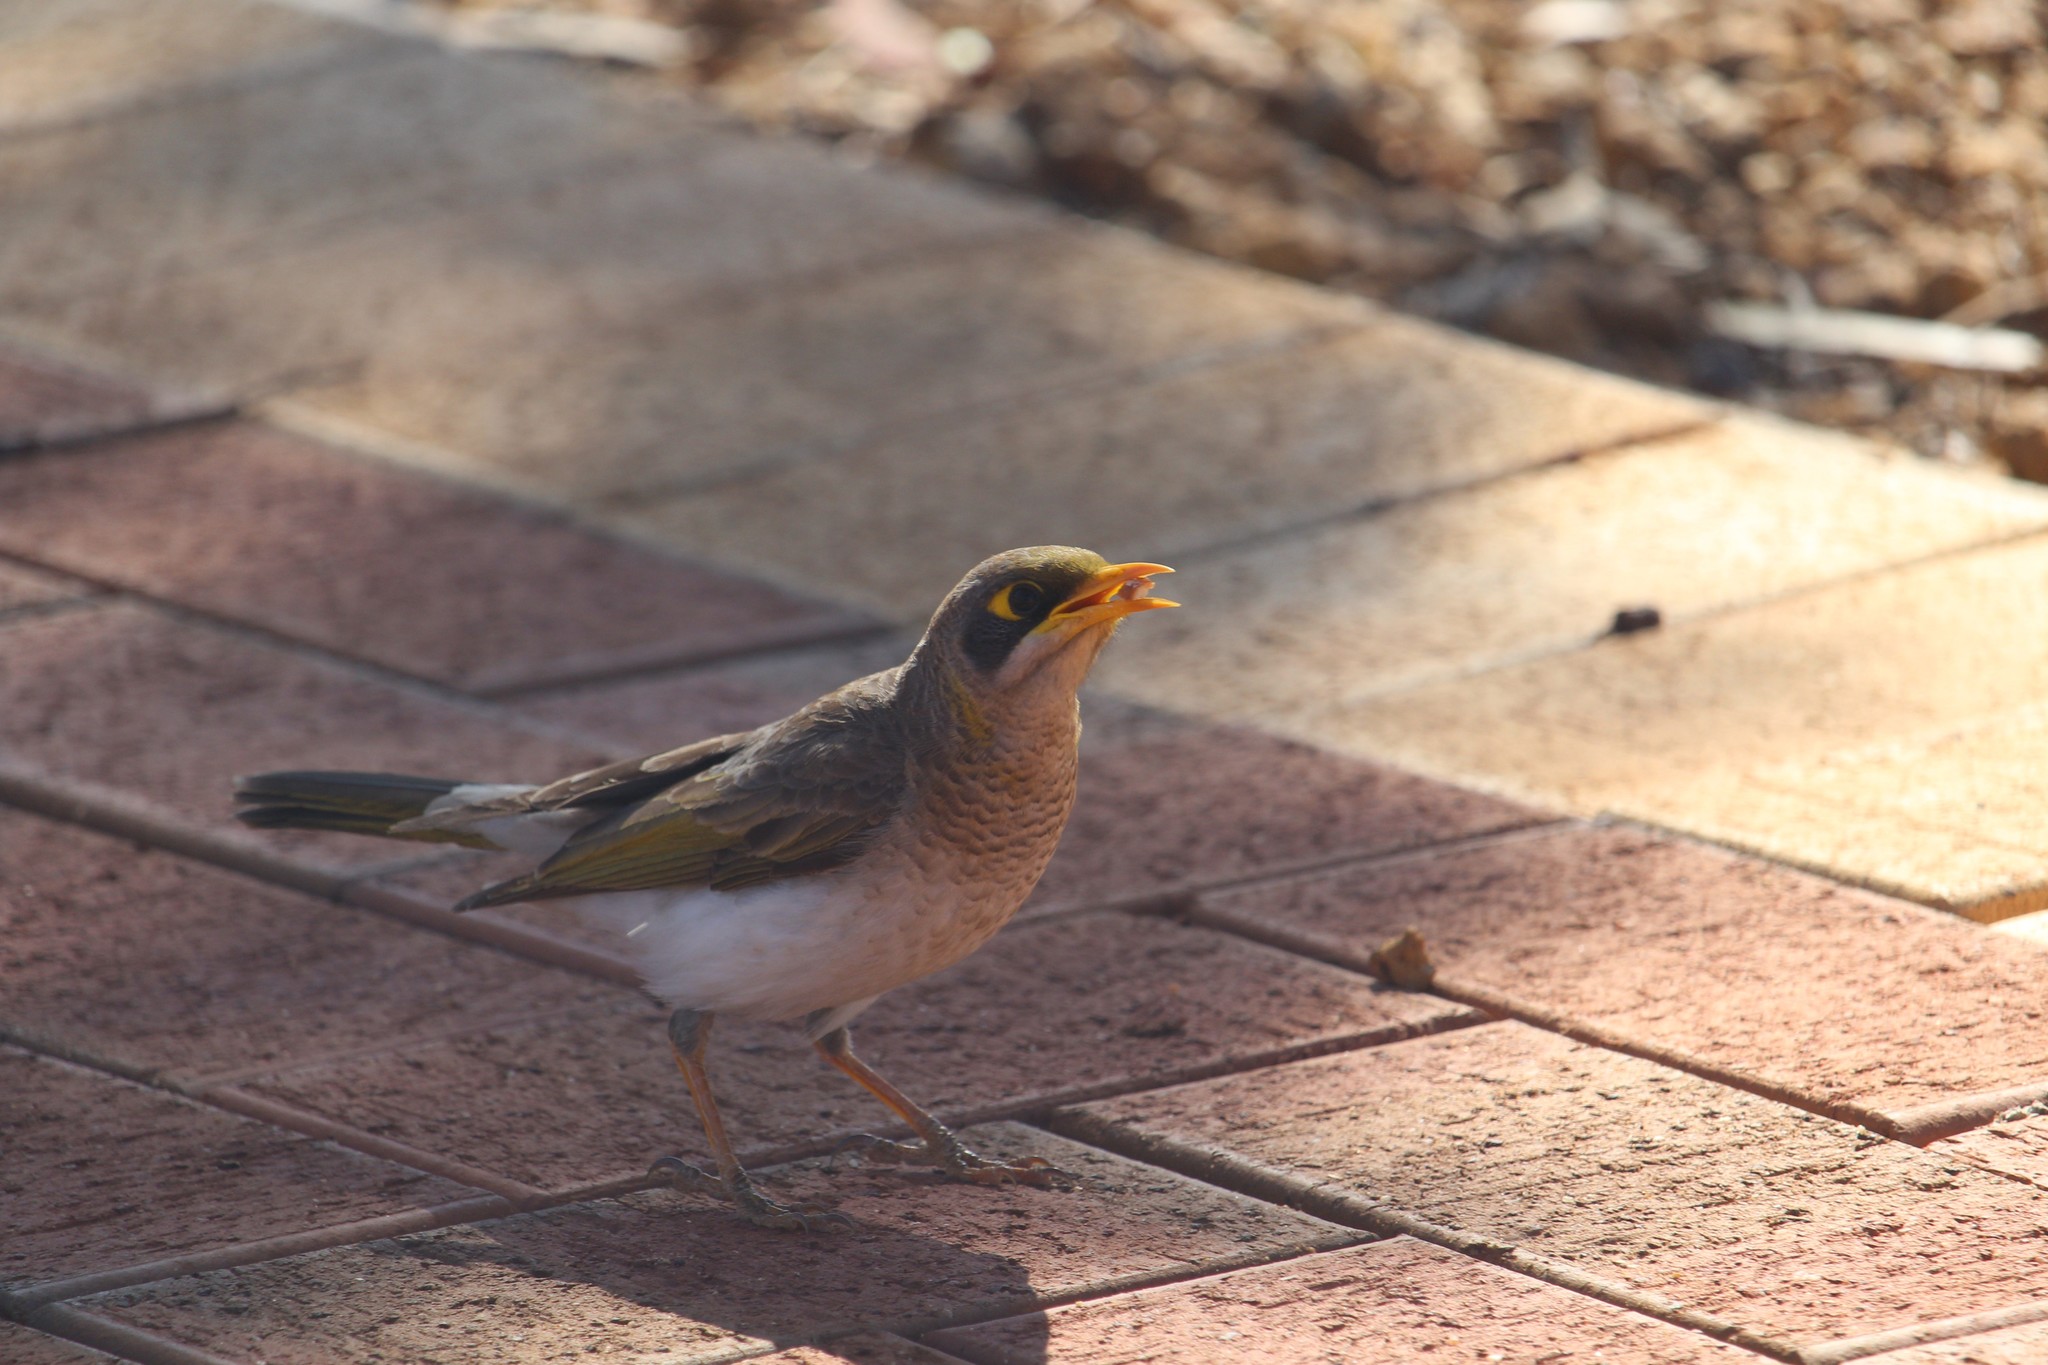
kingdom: Animalia
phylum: Chordata
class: Aves
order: Passeriformes
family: Meliphagidae
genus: Manorina
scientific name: Manorina flavigula
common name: Yellow-throated miner
